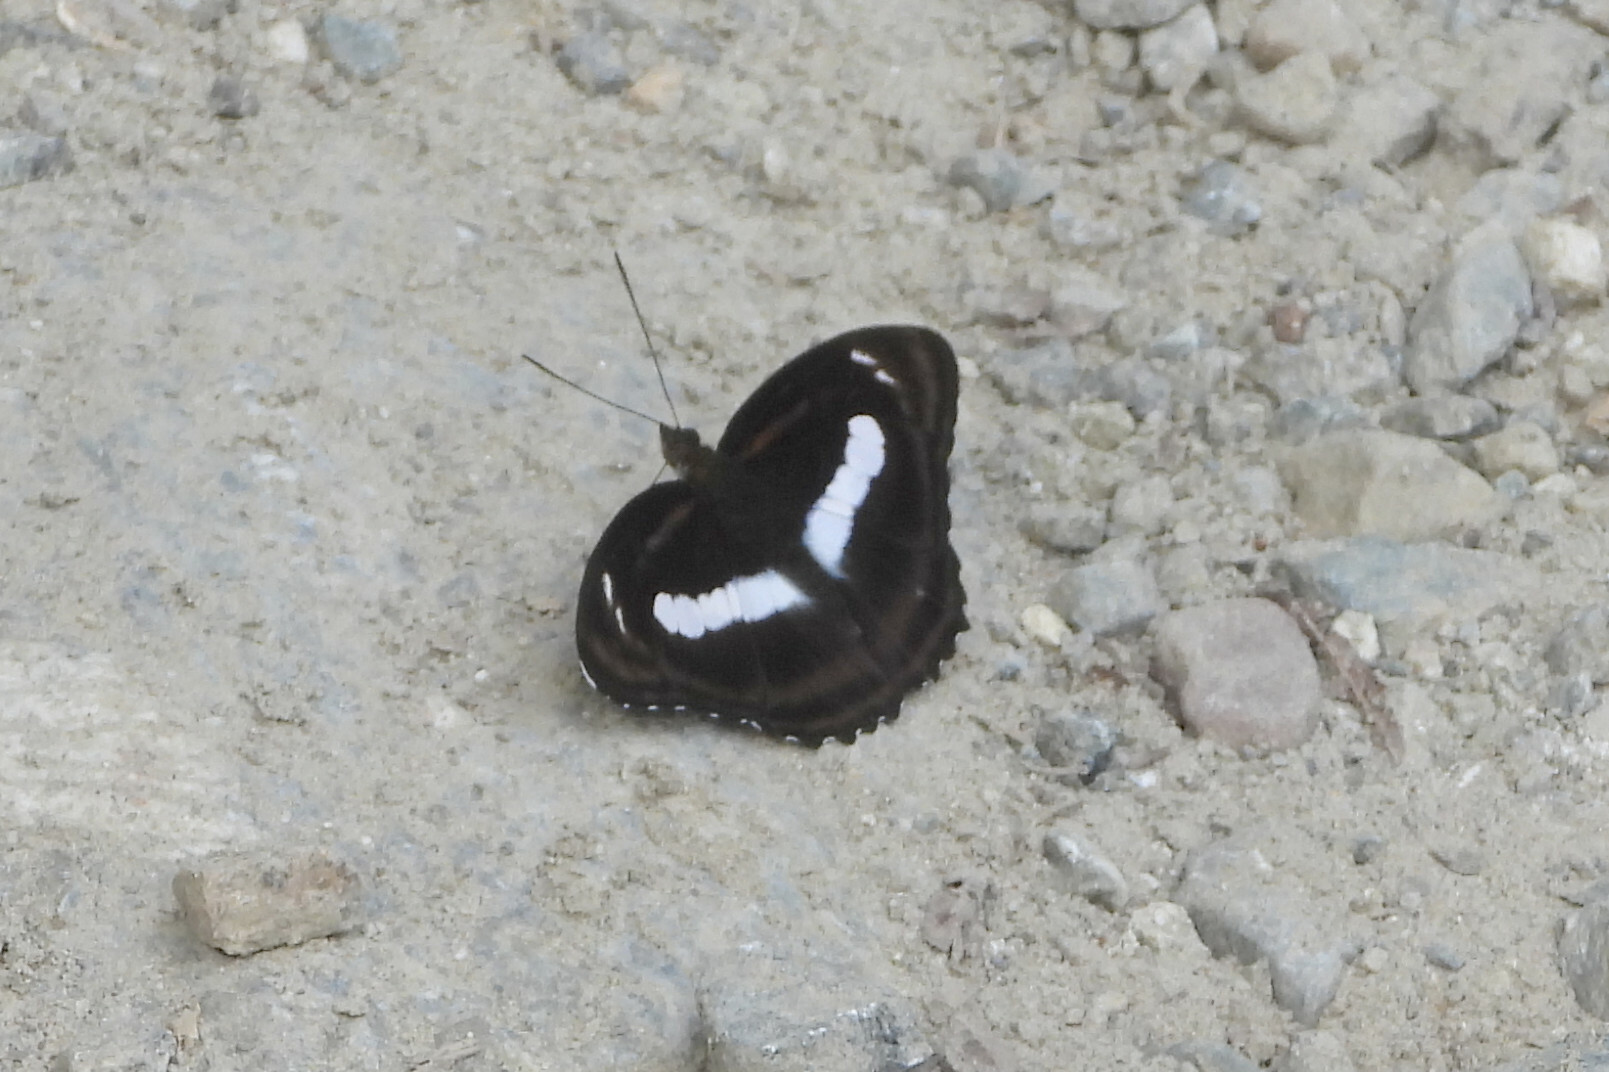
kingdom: Animalia
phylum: Arthropoda
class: Insecta
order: Lepidoptera
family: Nymphalidae
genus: Pantoporia
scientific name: Pantoporia zeroca
